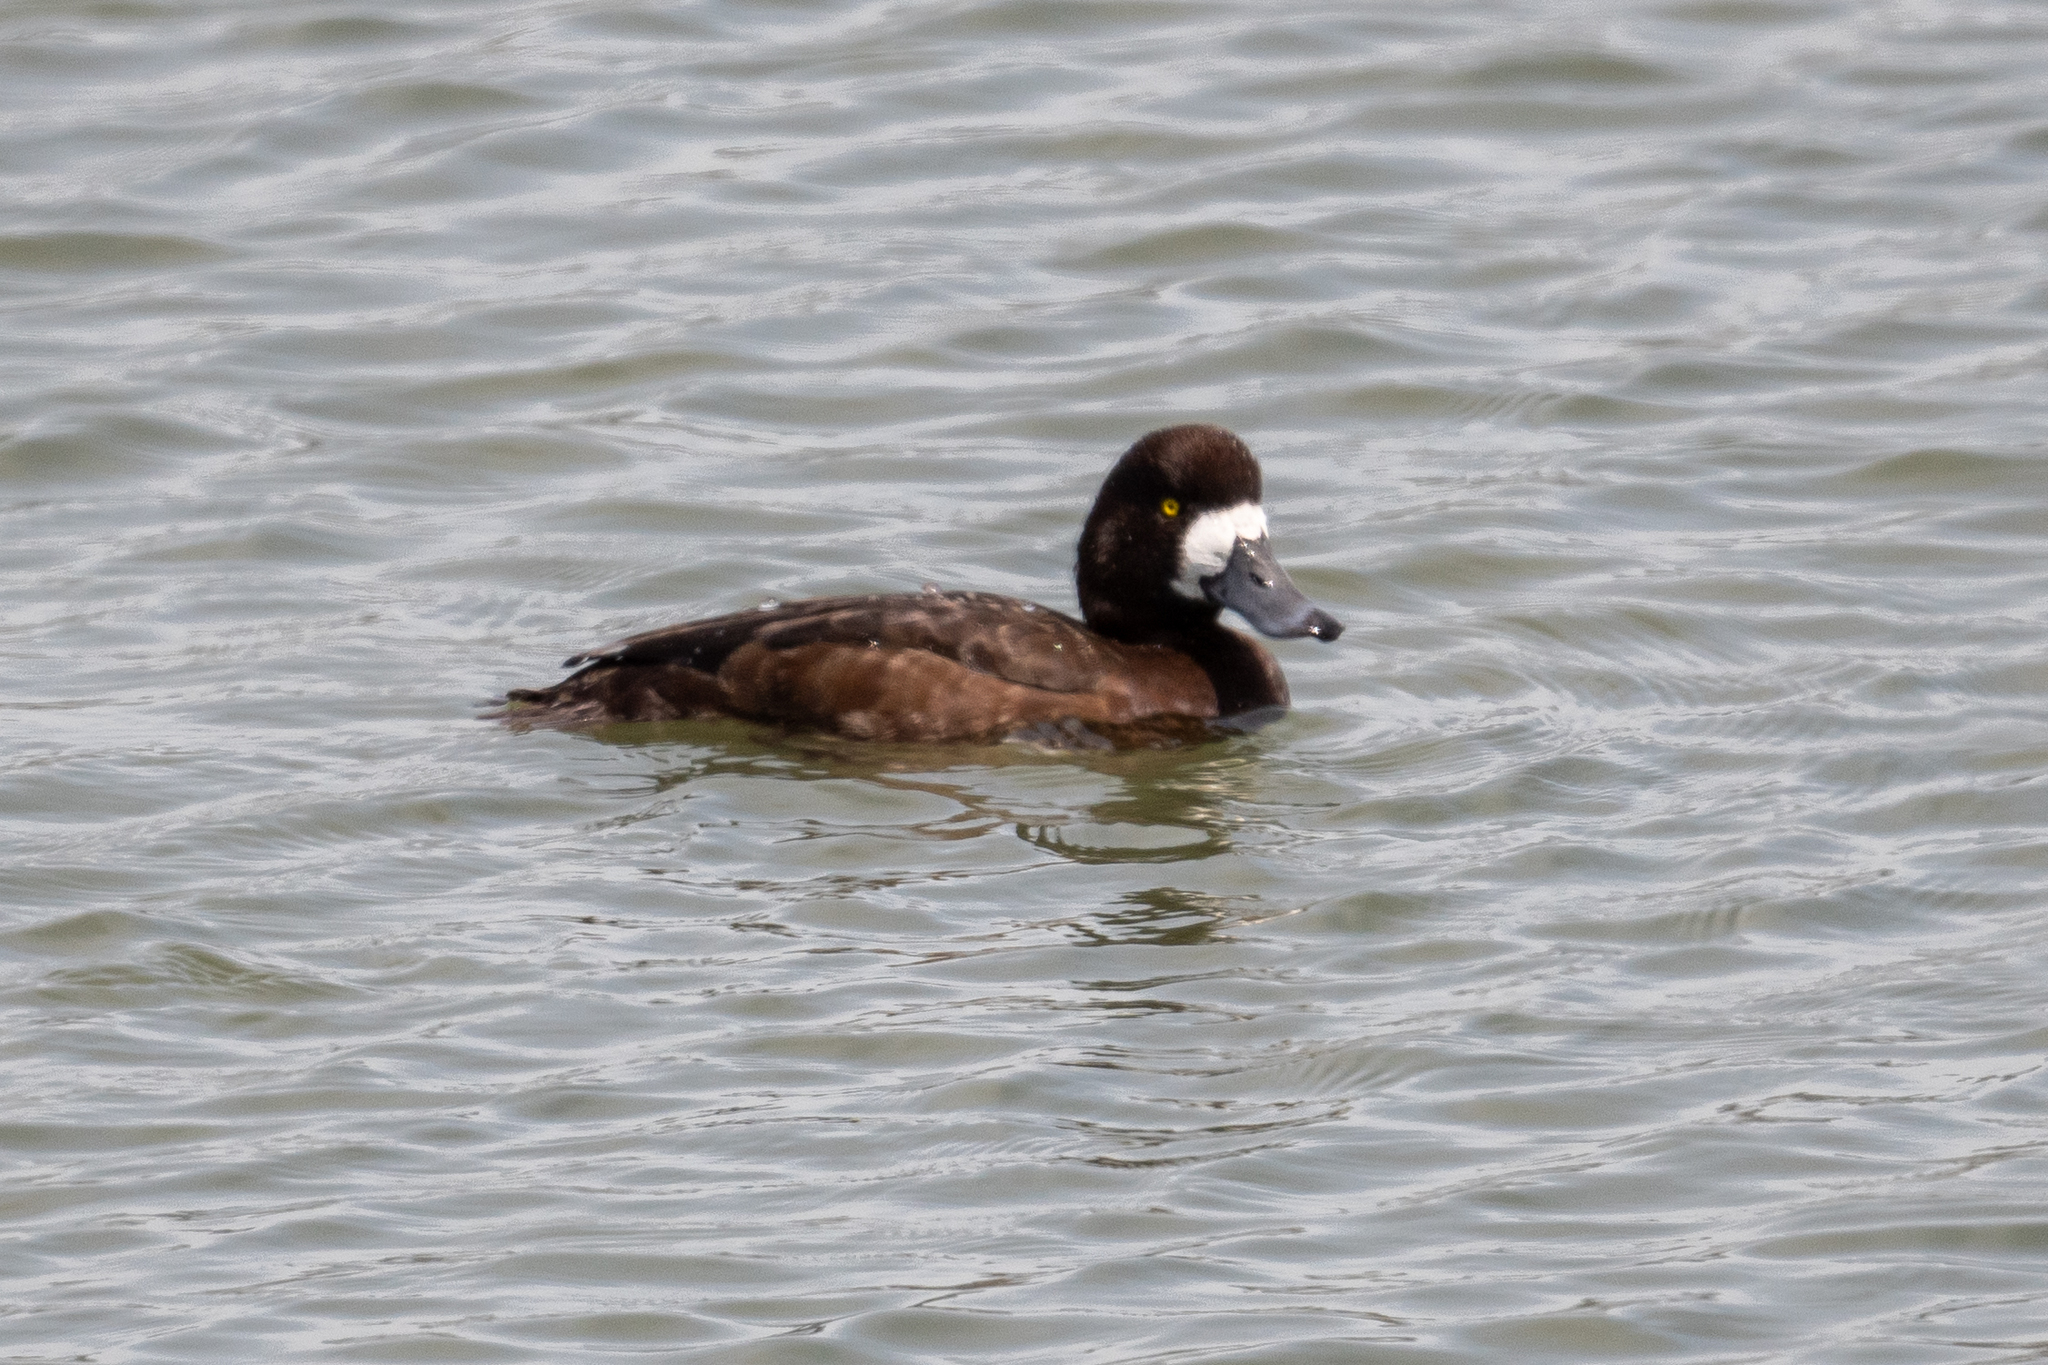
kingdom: Animalia
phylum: Chordata
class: Aves
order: Anseriformes
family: Anatidae
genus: Aythya
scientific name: Aythya marila
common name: Greater scaup
